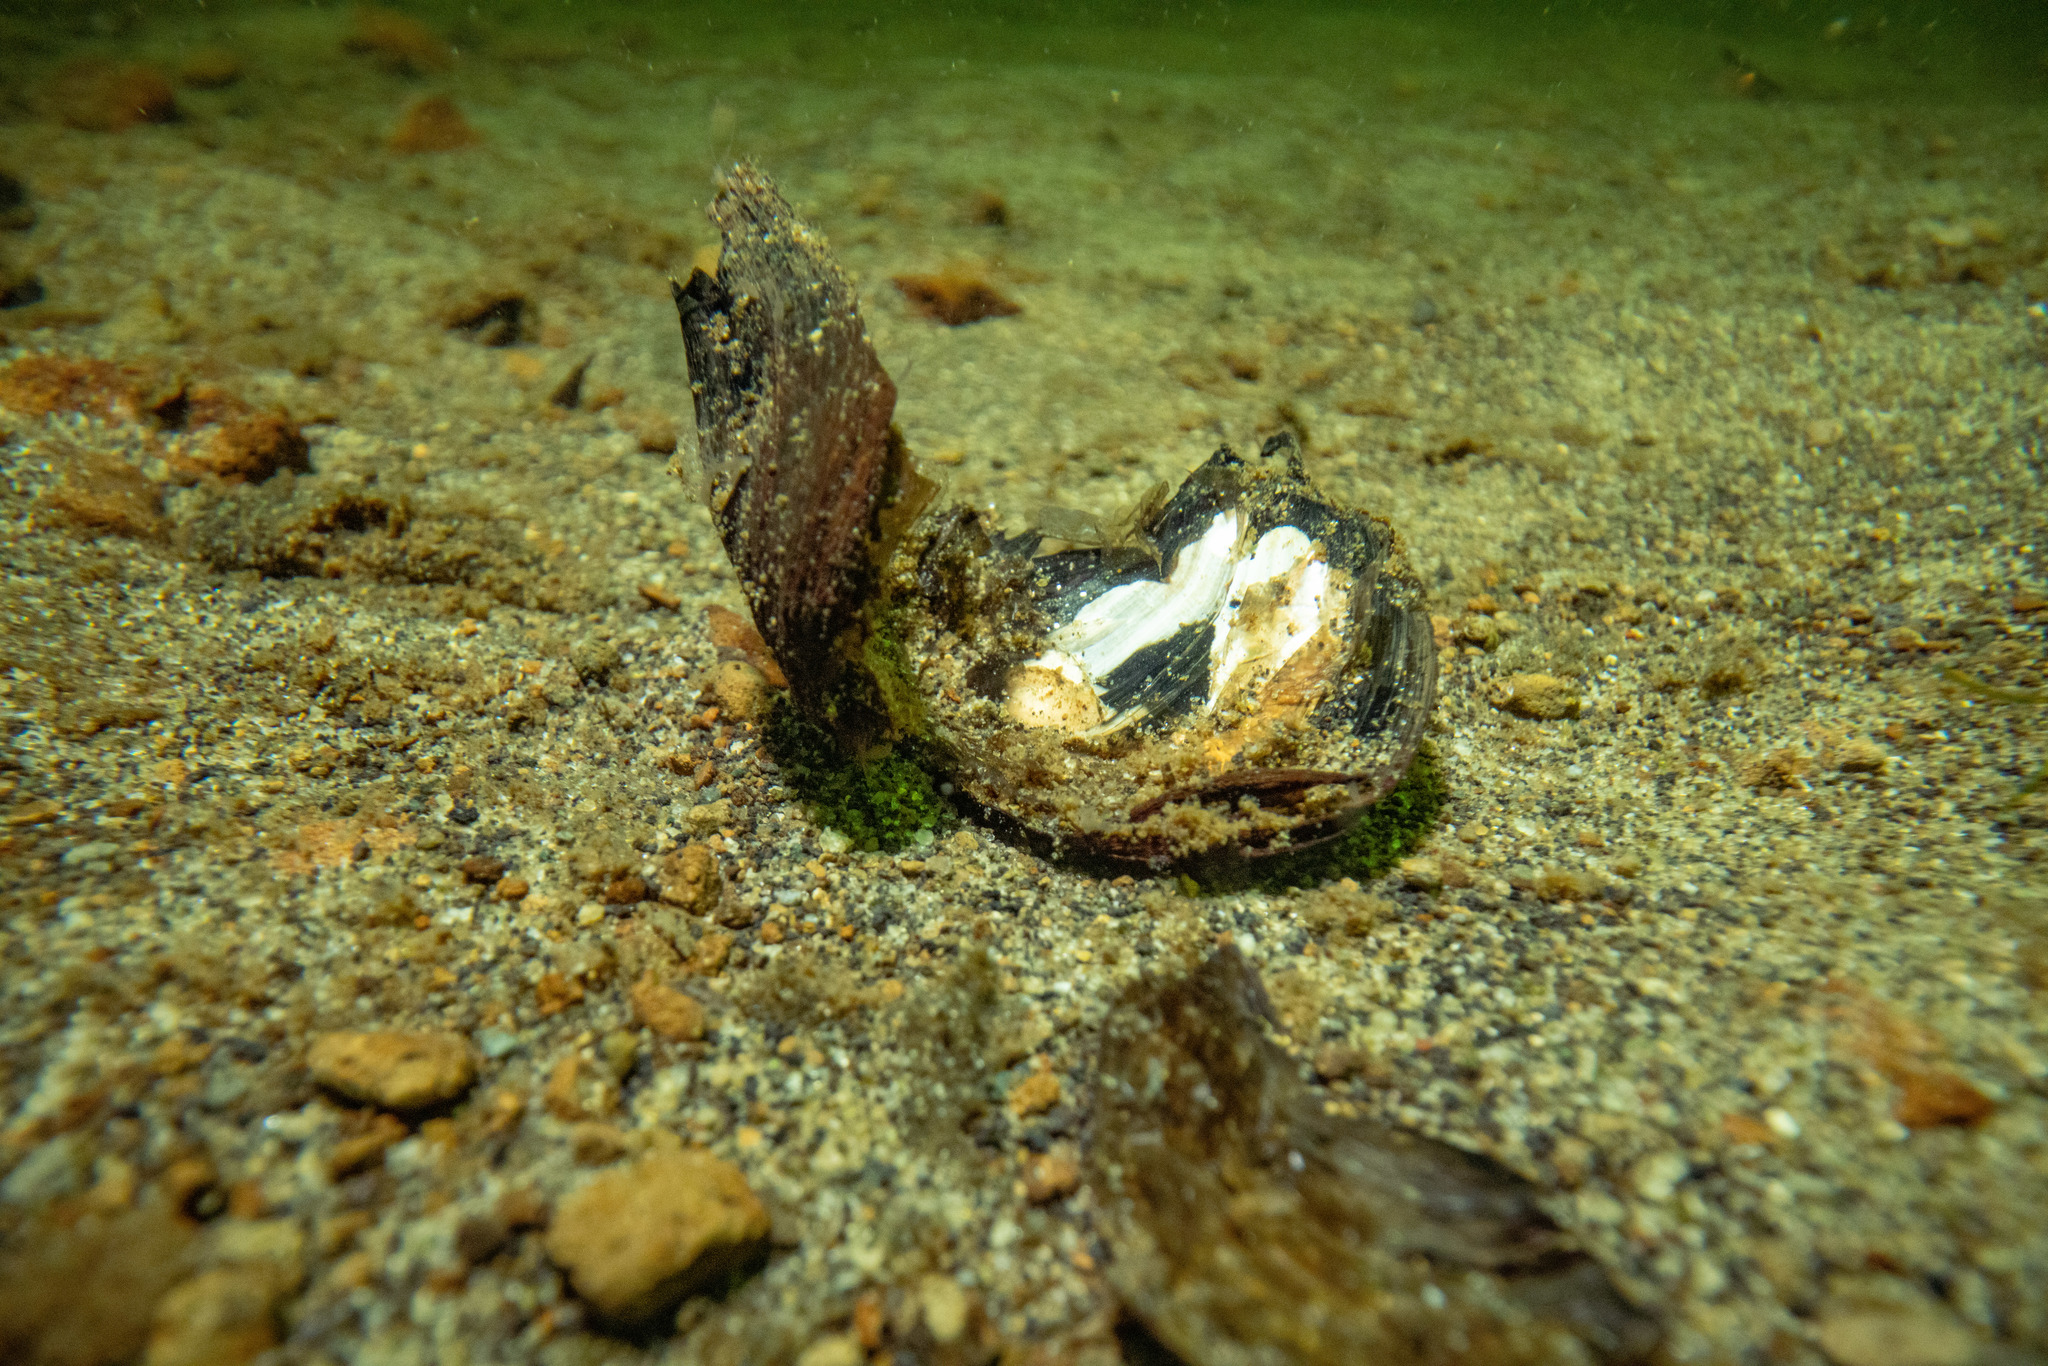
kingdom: Animalia
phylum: Mollusca
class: Bivalvia
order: Unionida
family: Hyriidae
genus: Echyridella
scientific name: Echyridella
